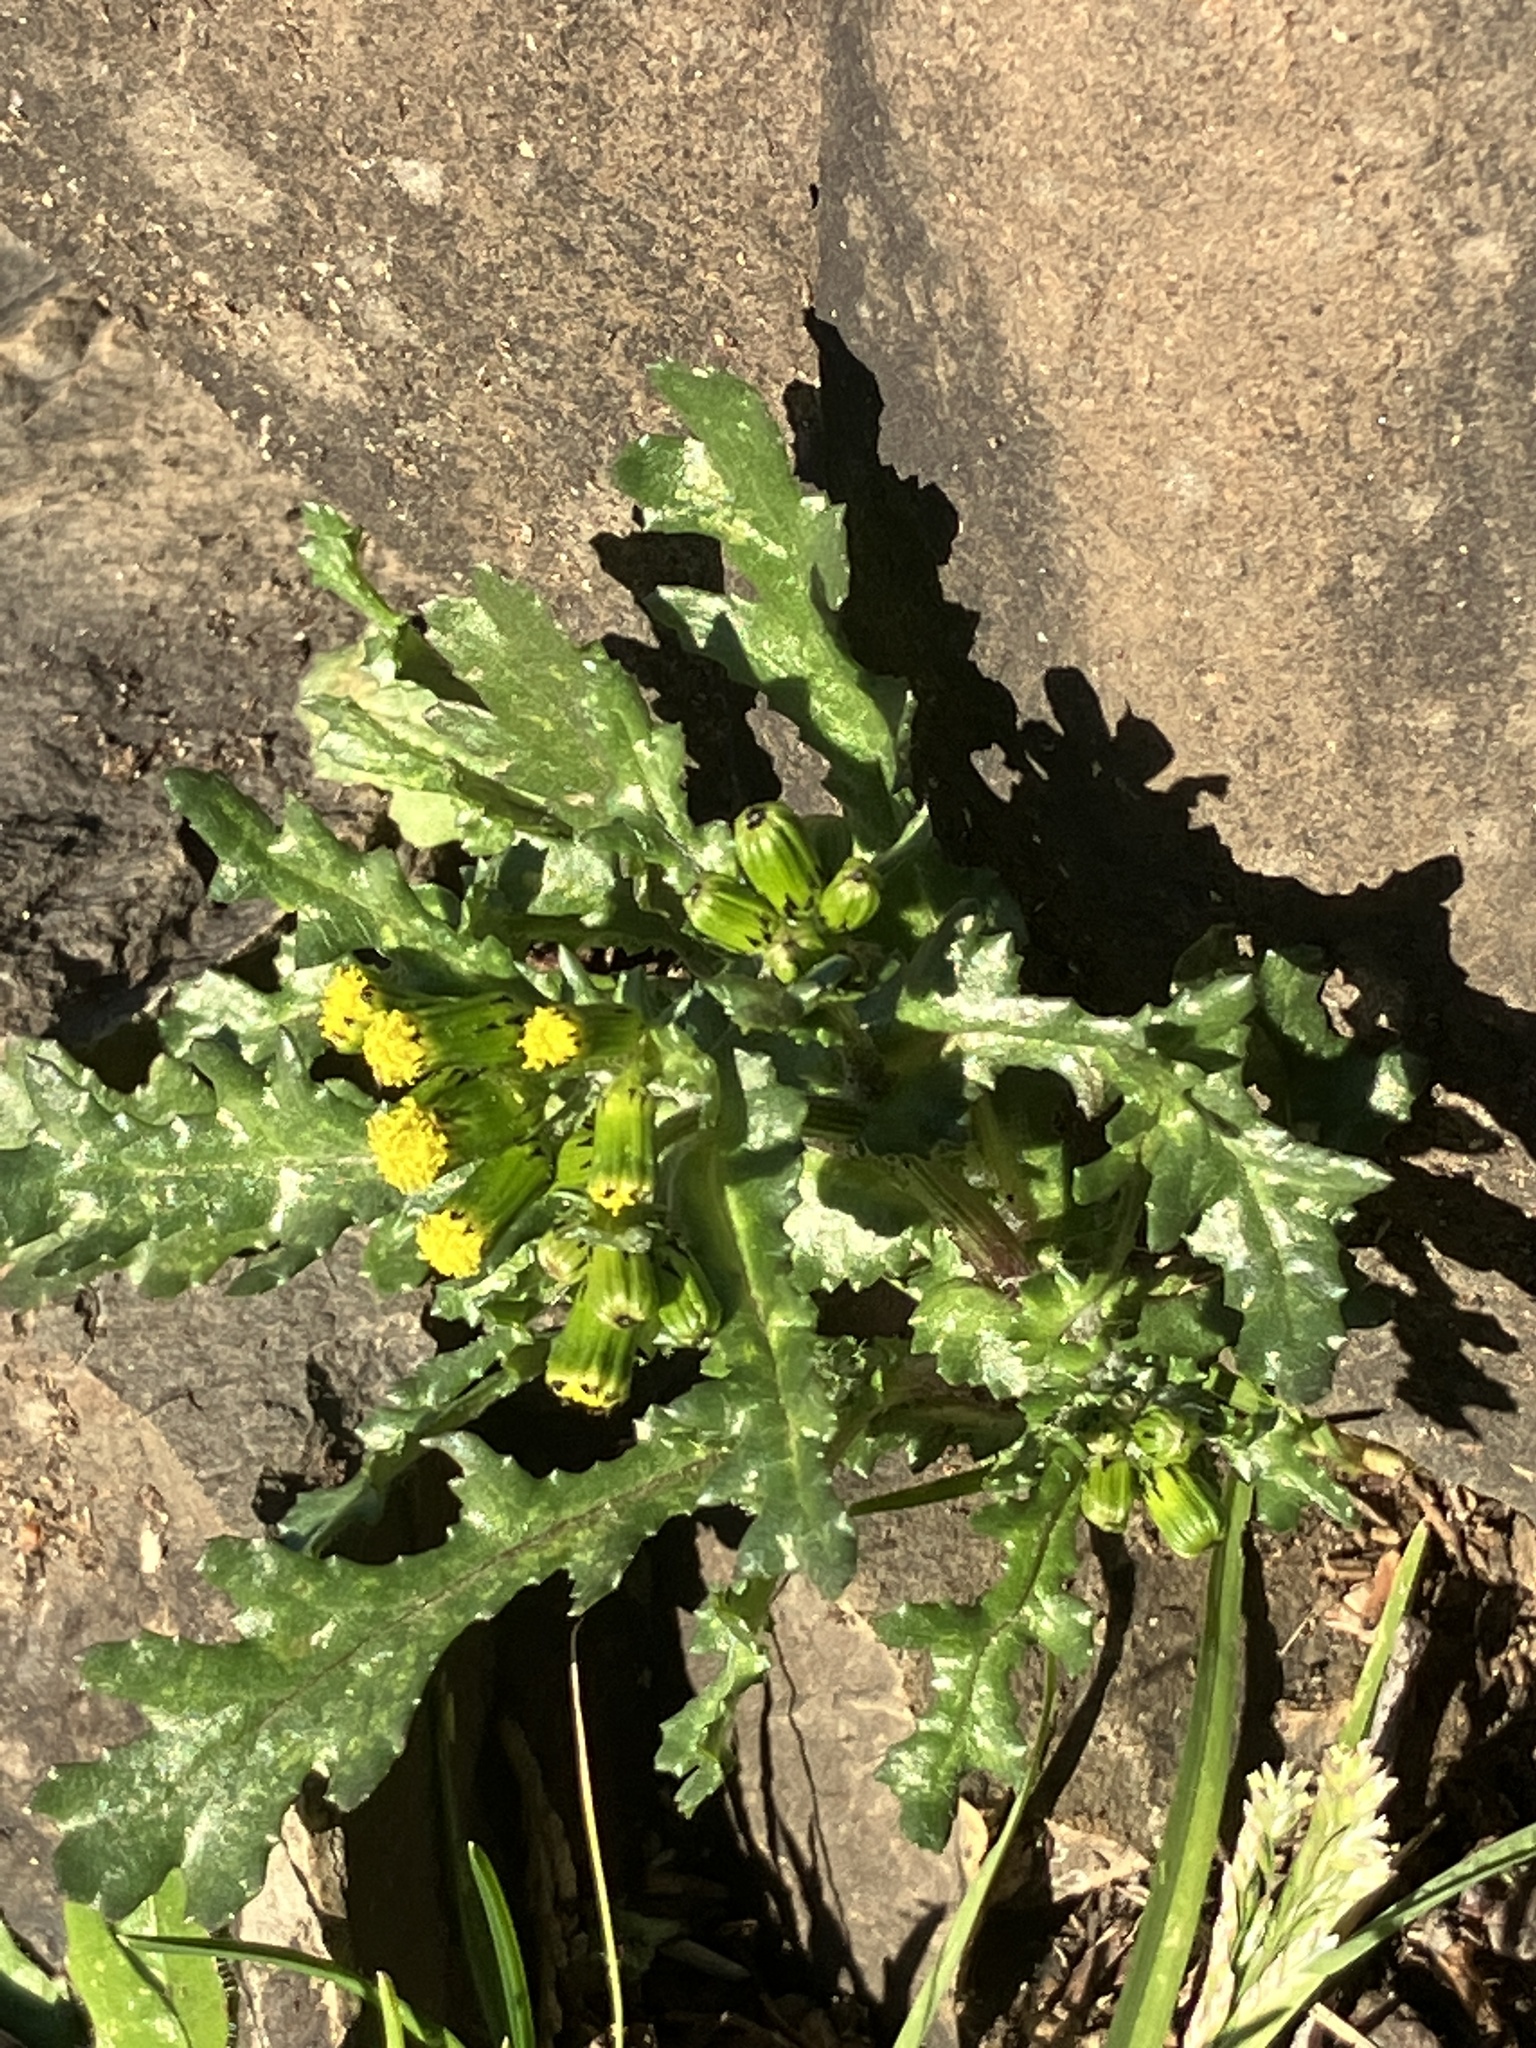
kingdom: Plantae
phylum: Tracheophyta
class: Magnoliopsida
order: Asterales
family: Asteraceae
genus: Senecio
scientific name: Senecio vulgaris
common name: Old-man-in-the-spring
